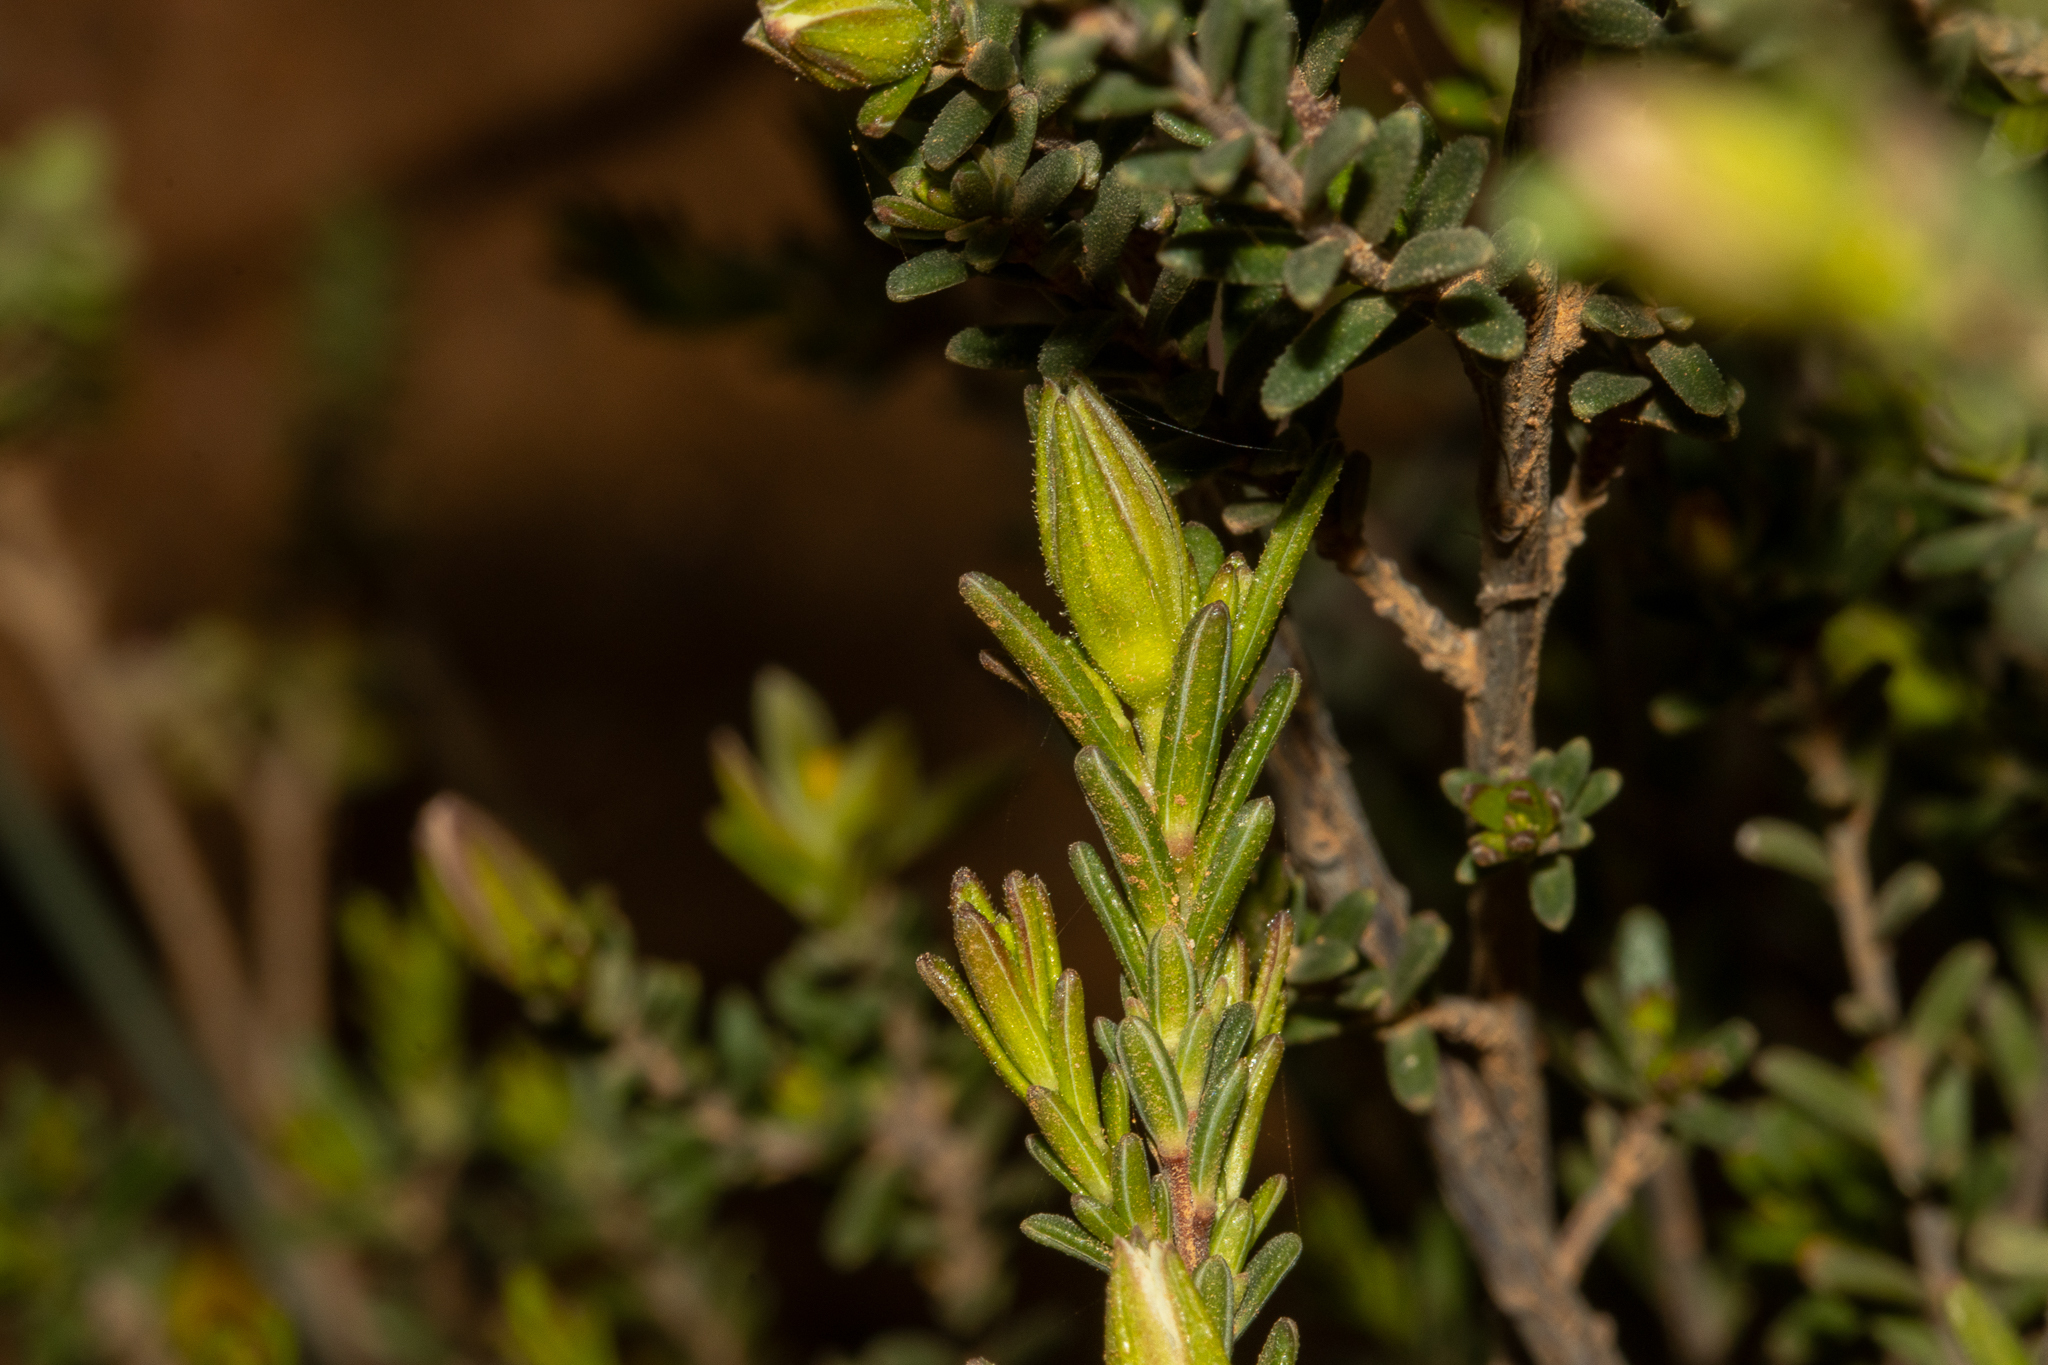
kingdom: Plantae
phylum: Tracheophyta
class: Magnoliopsida
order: Dilleniales
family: Dilleniaceae
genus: Hibbertia
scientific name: Hibbertia devitata
